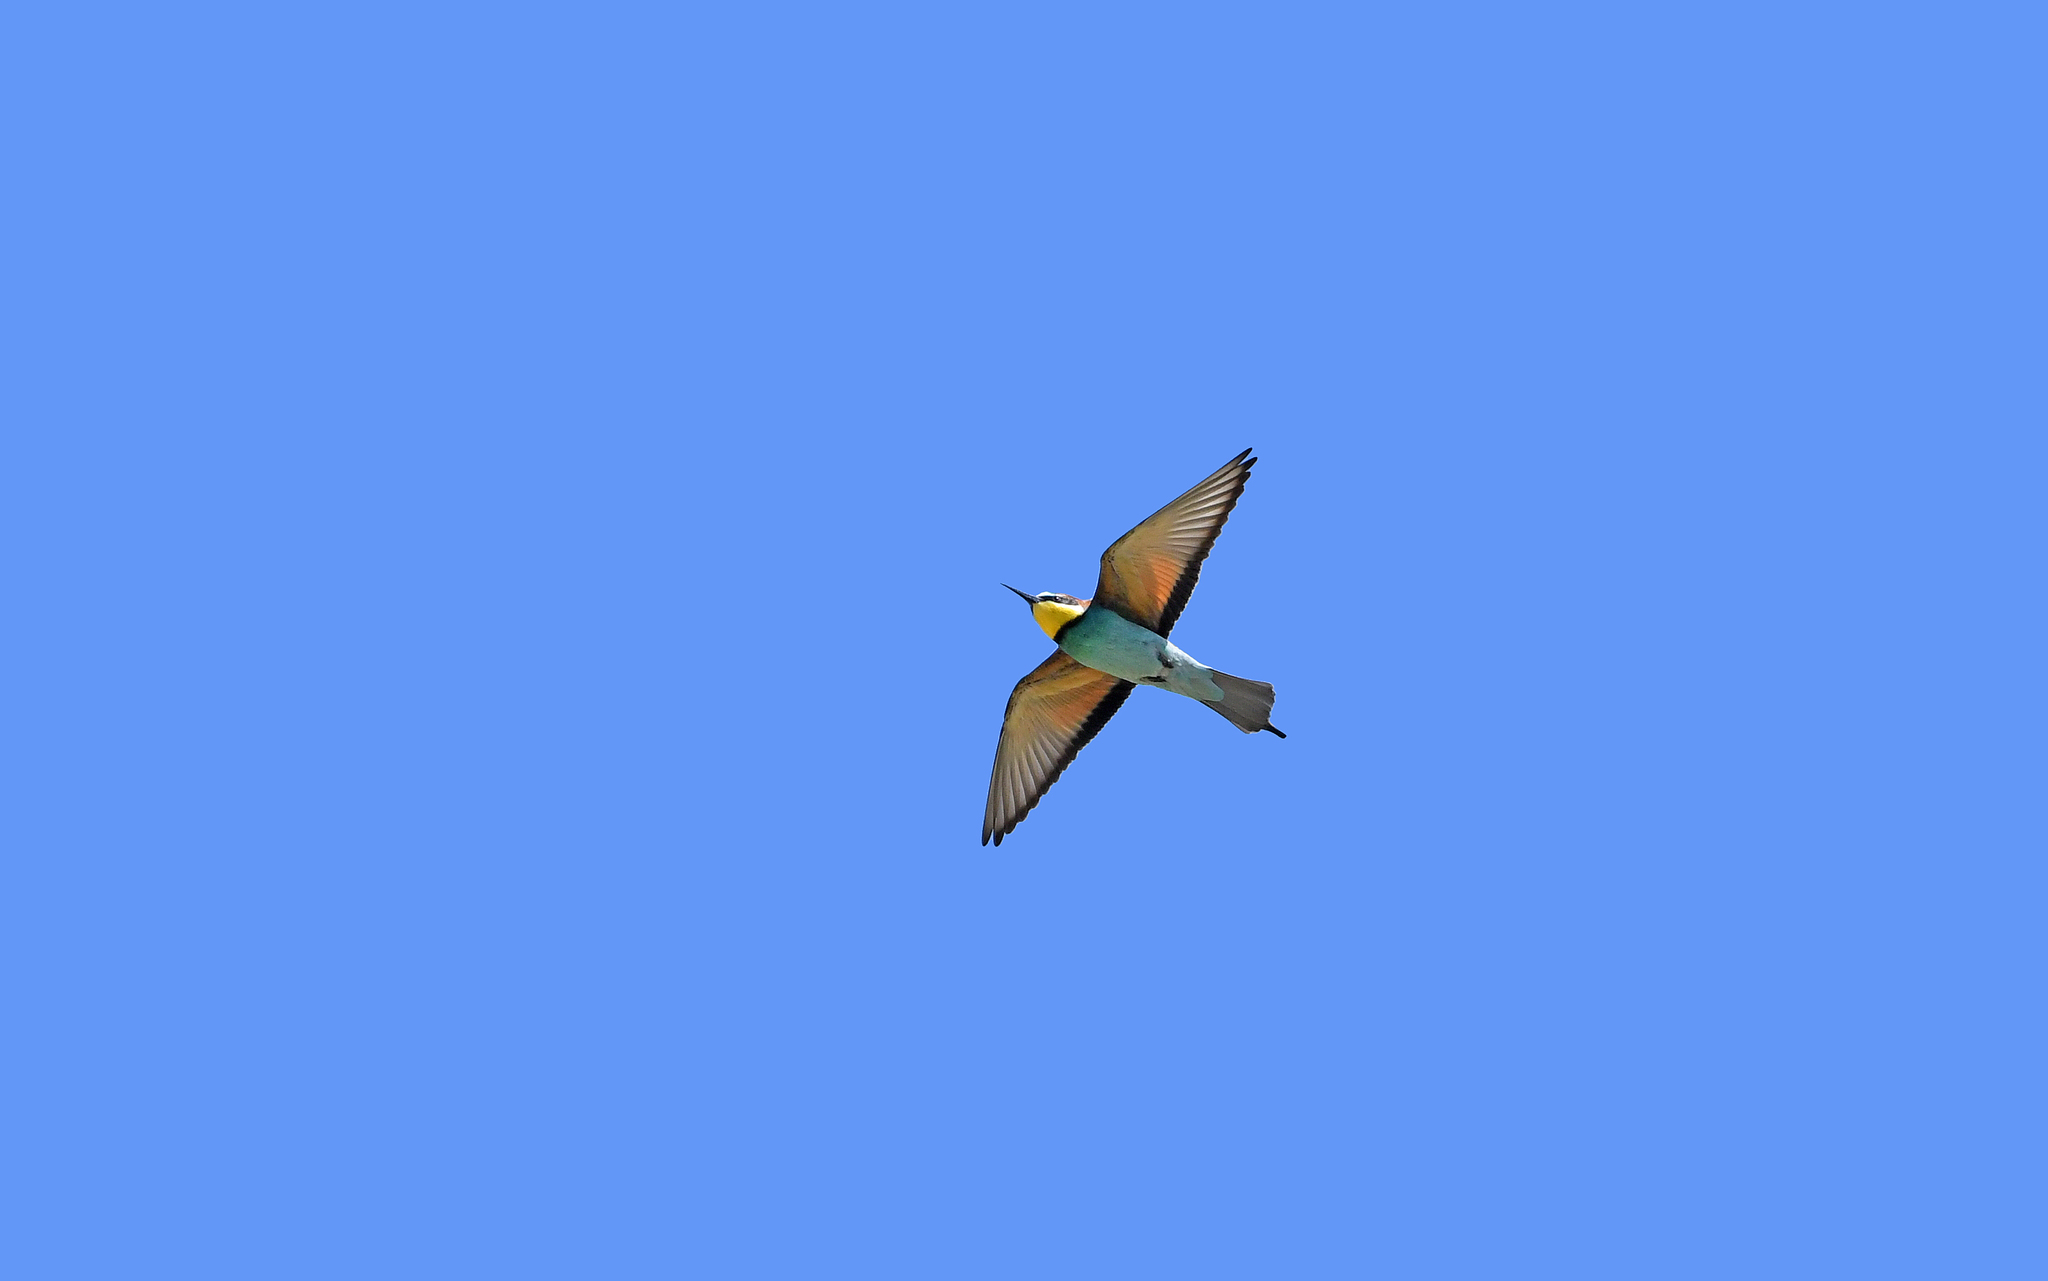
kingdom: Animalia
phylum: Chordata
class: Aves
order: Coraciiformes
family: Meropidae
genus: Merops
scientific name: Merops apiaster
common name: European bee-eater
